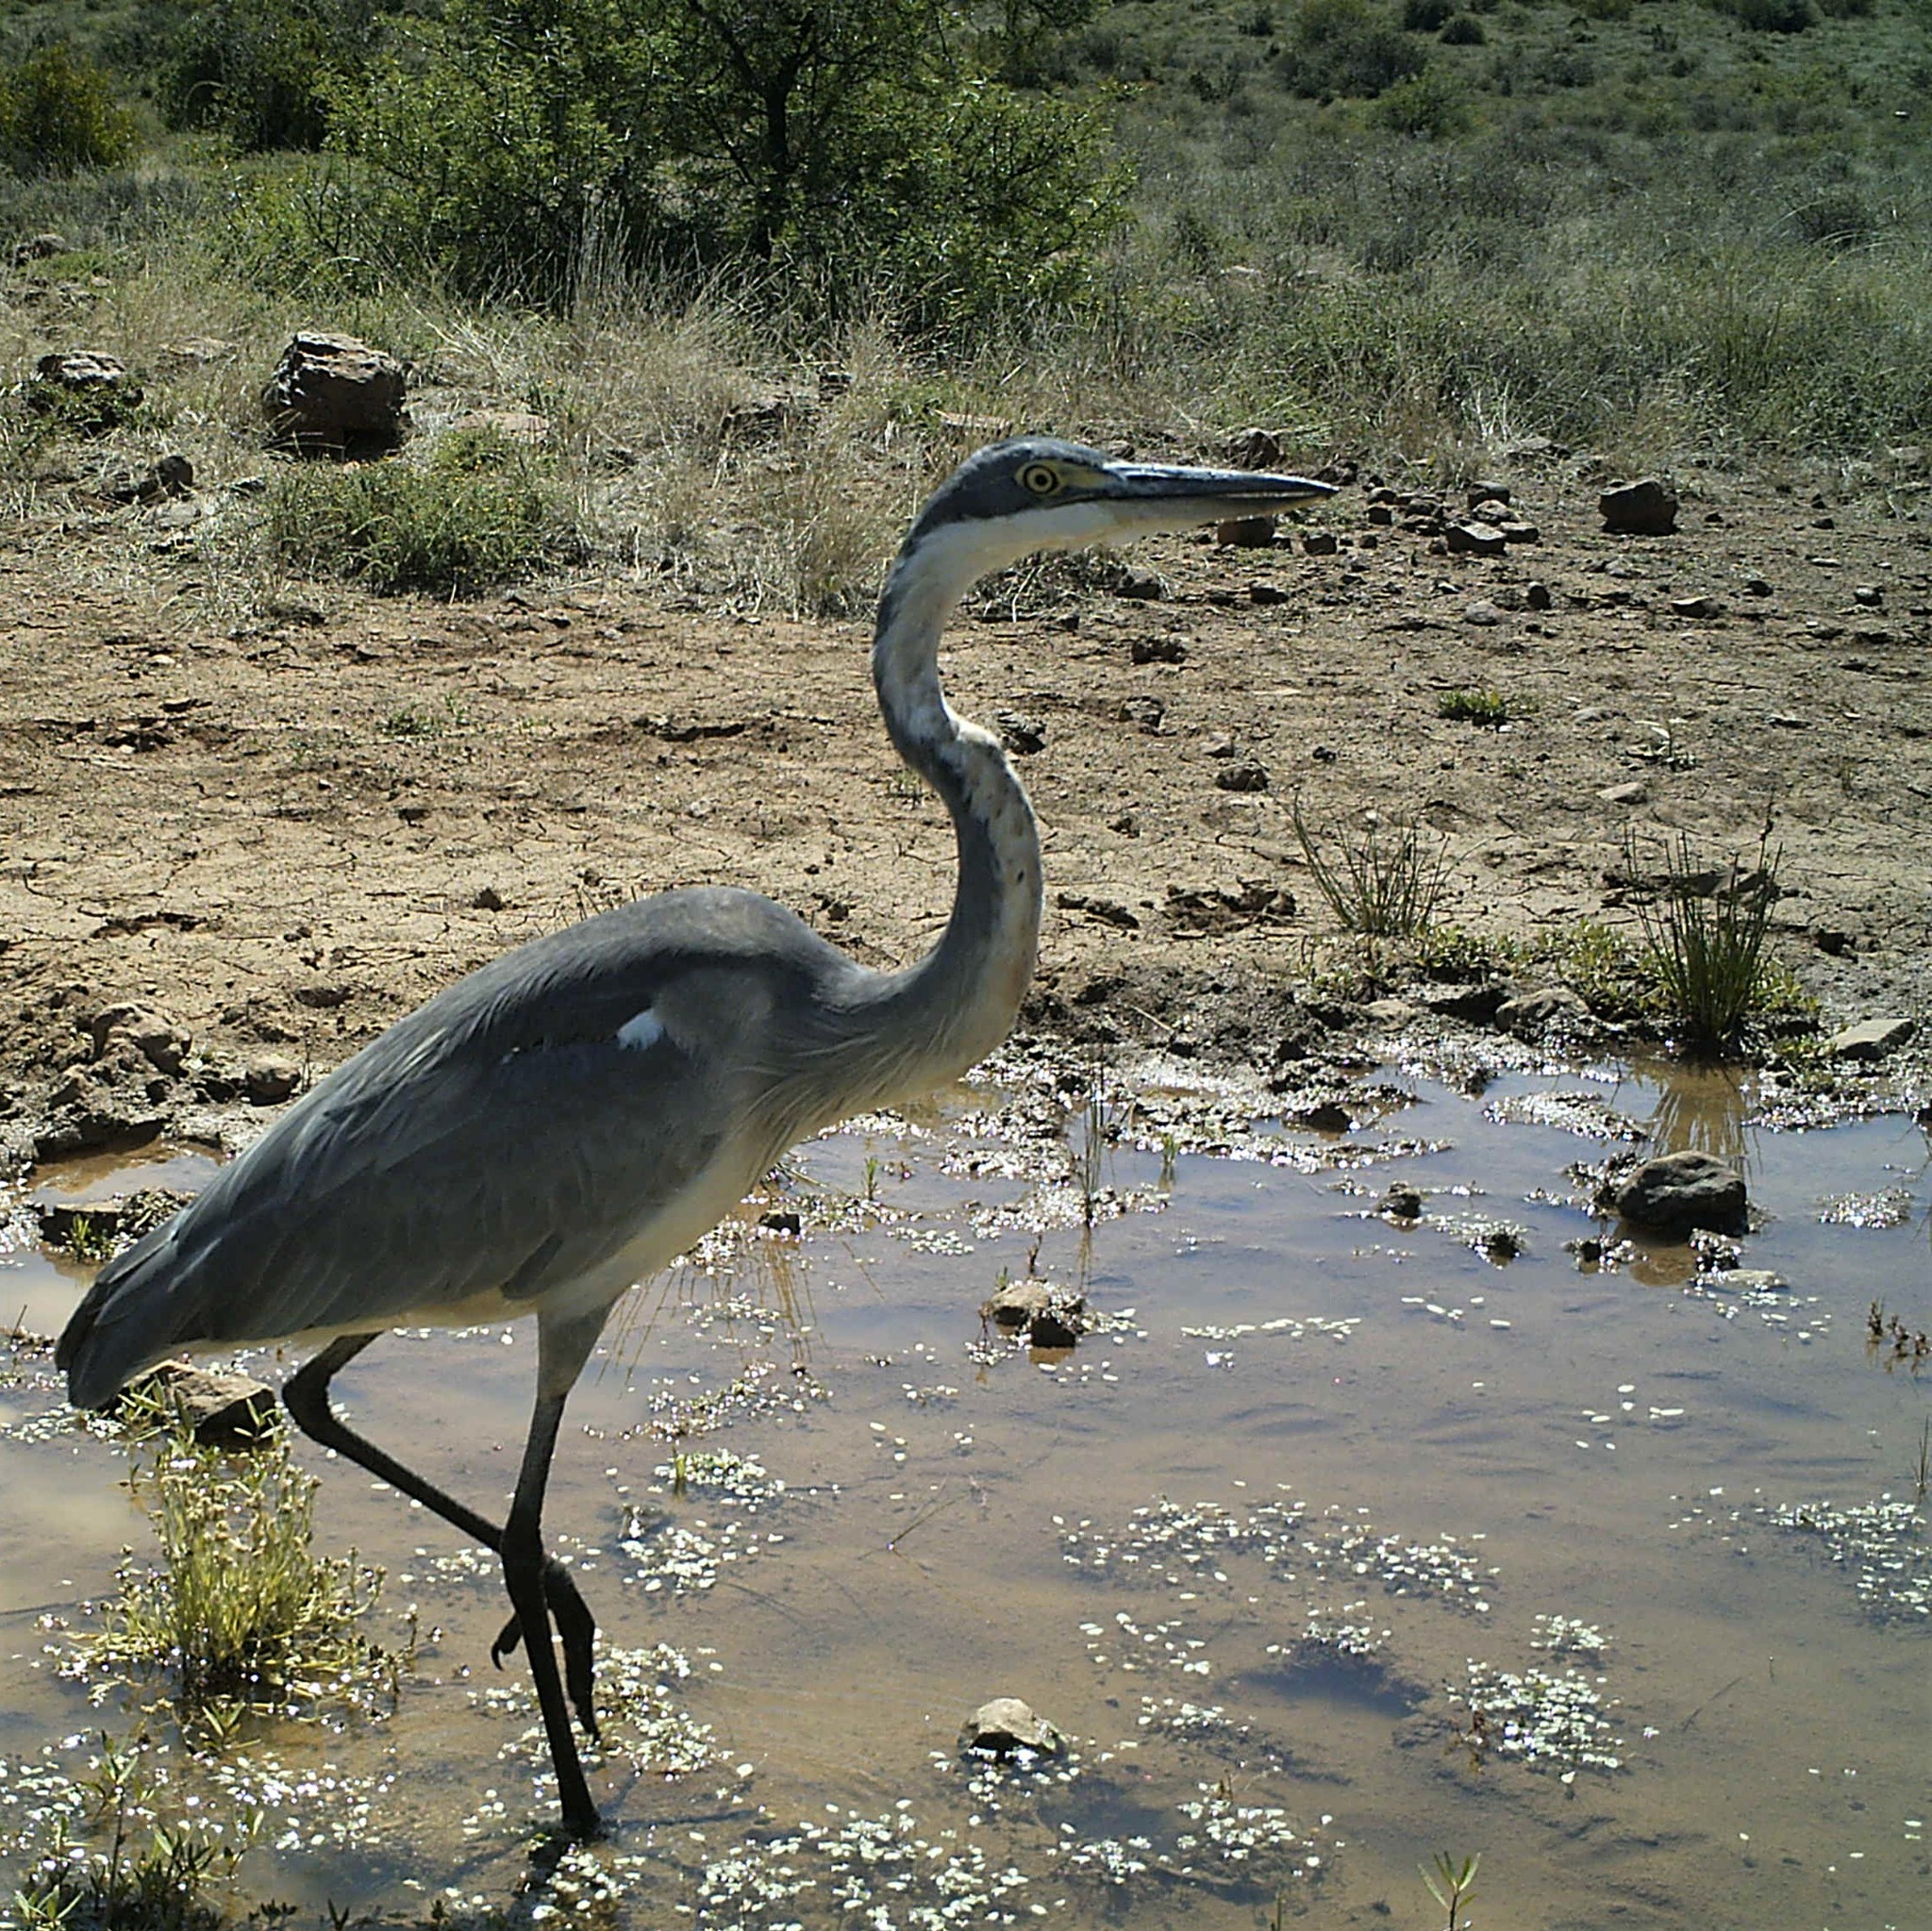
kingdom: Animalia
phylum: Chordata
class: Aves
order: Pelecaniformes
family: Ardeidae
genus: Ardea
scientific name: Ardea melanocephala
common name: Black-headed heron
